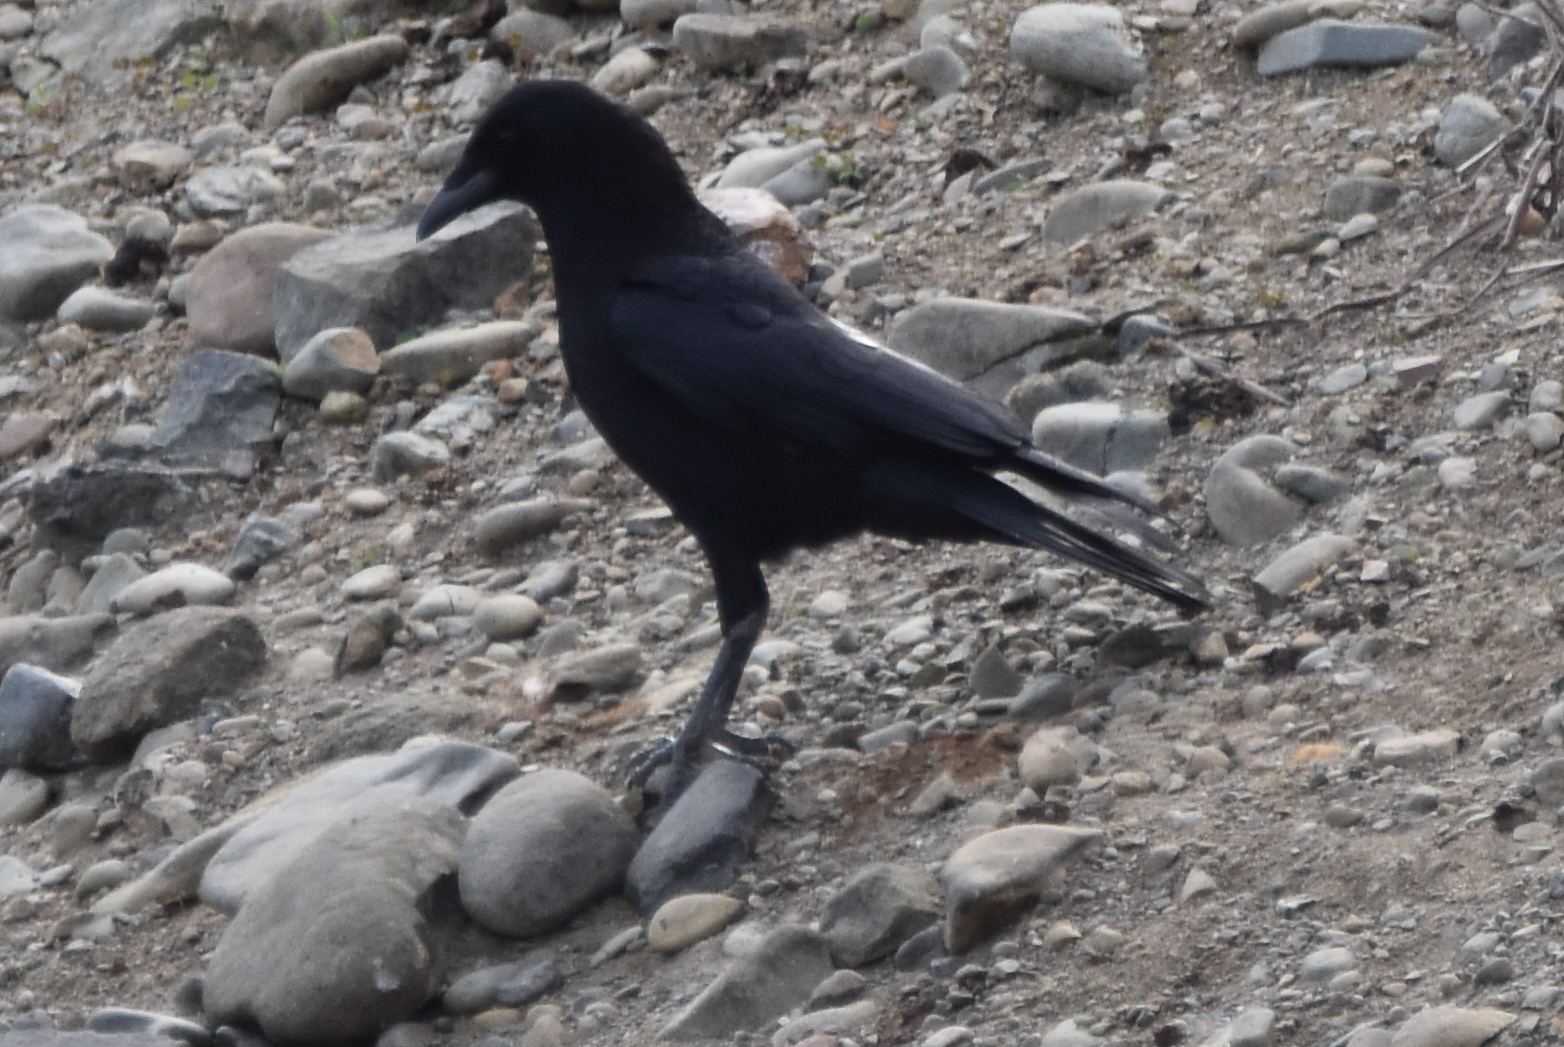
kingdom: Animalia
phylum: Chordata
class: Aves
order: Passeriformes
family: Corvidae
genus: Corvus
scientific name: Corvus brachyrhynchos
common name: American crow
